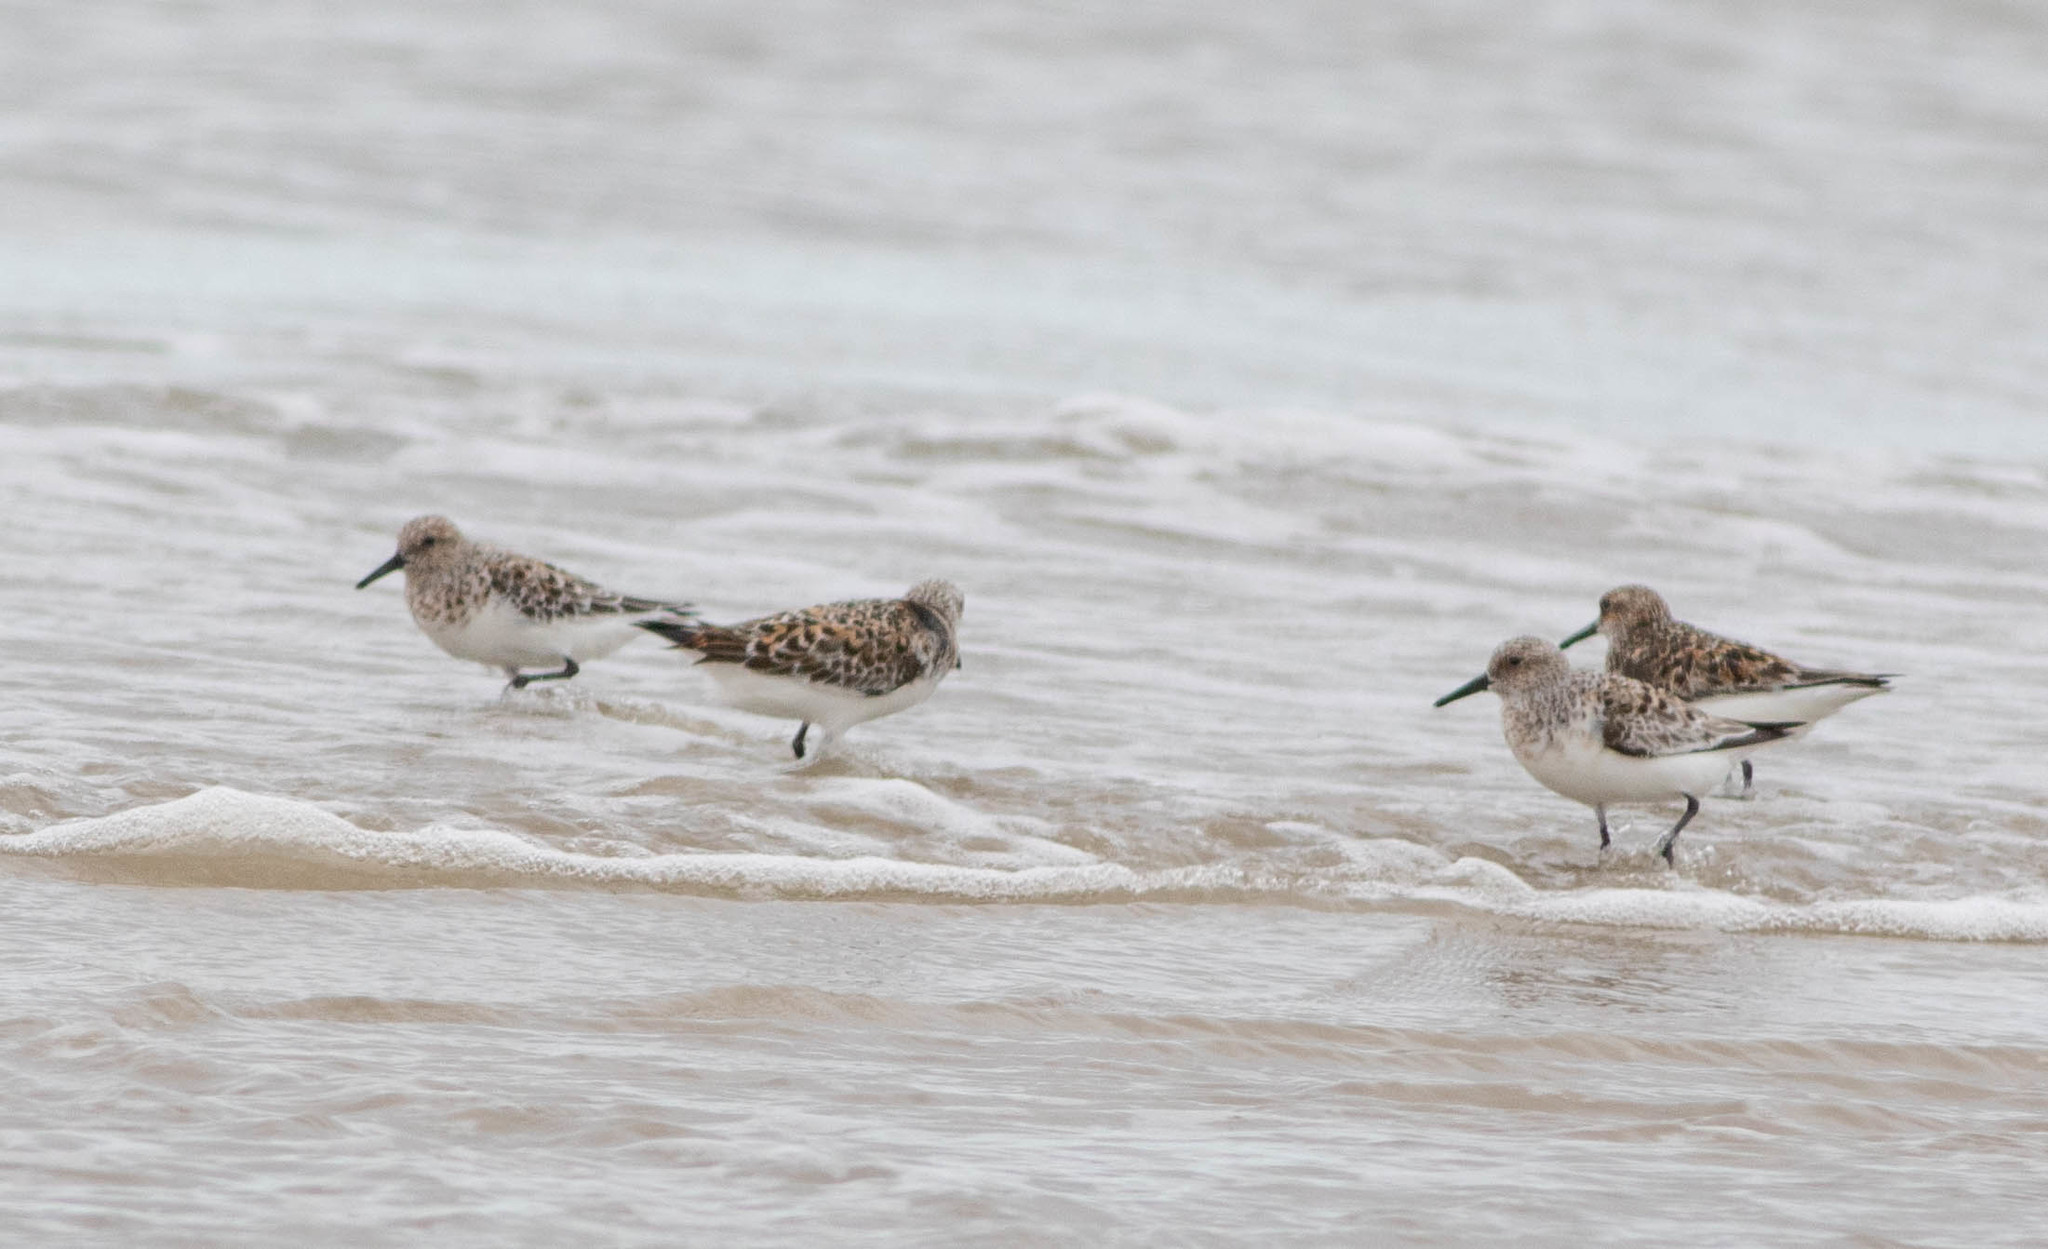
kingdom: Animalia
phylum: Chordata
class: Aves
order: Charadriiformes
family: Scolopacidae
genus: Calidris
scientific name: Calidris alba
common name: Sanderling
